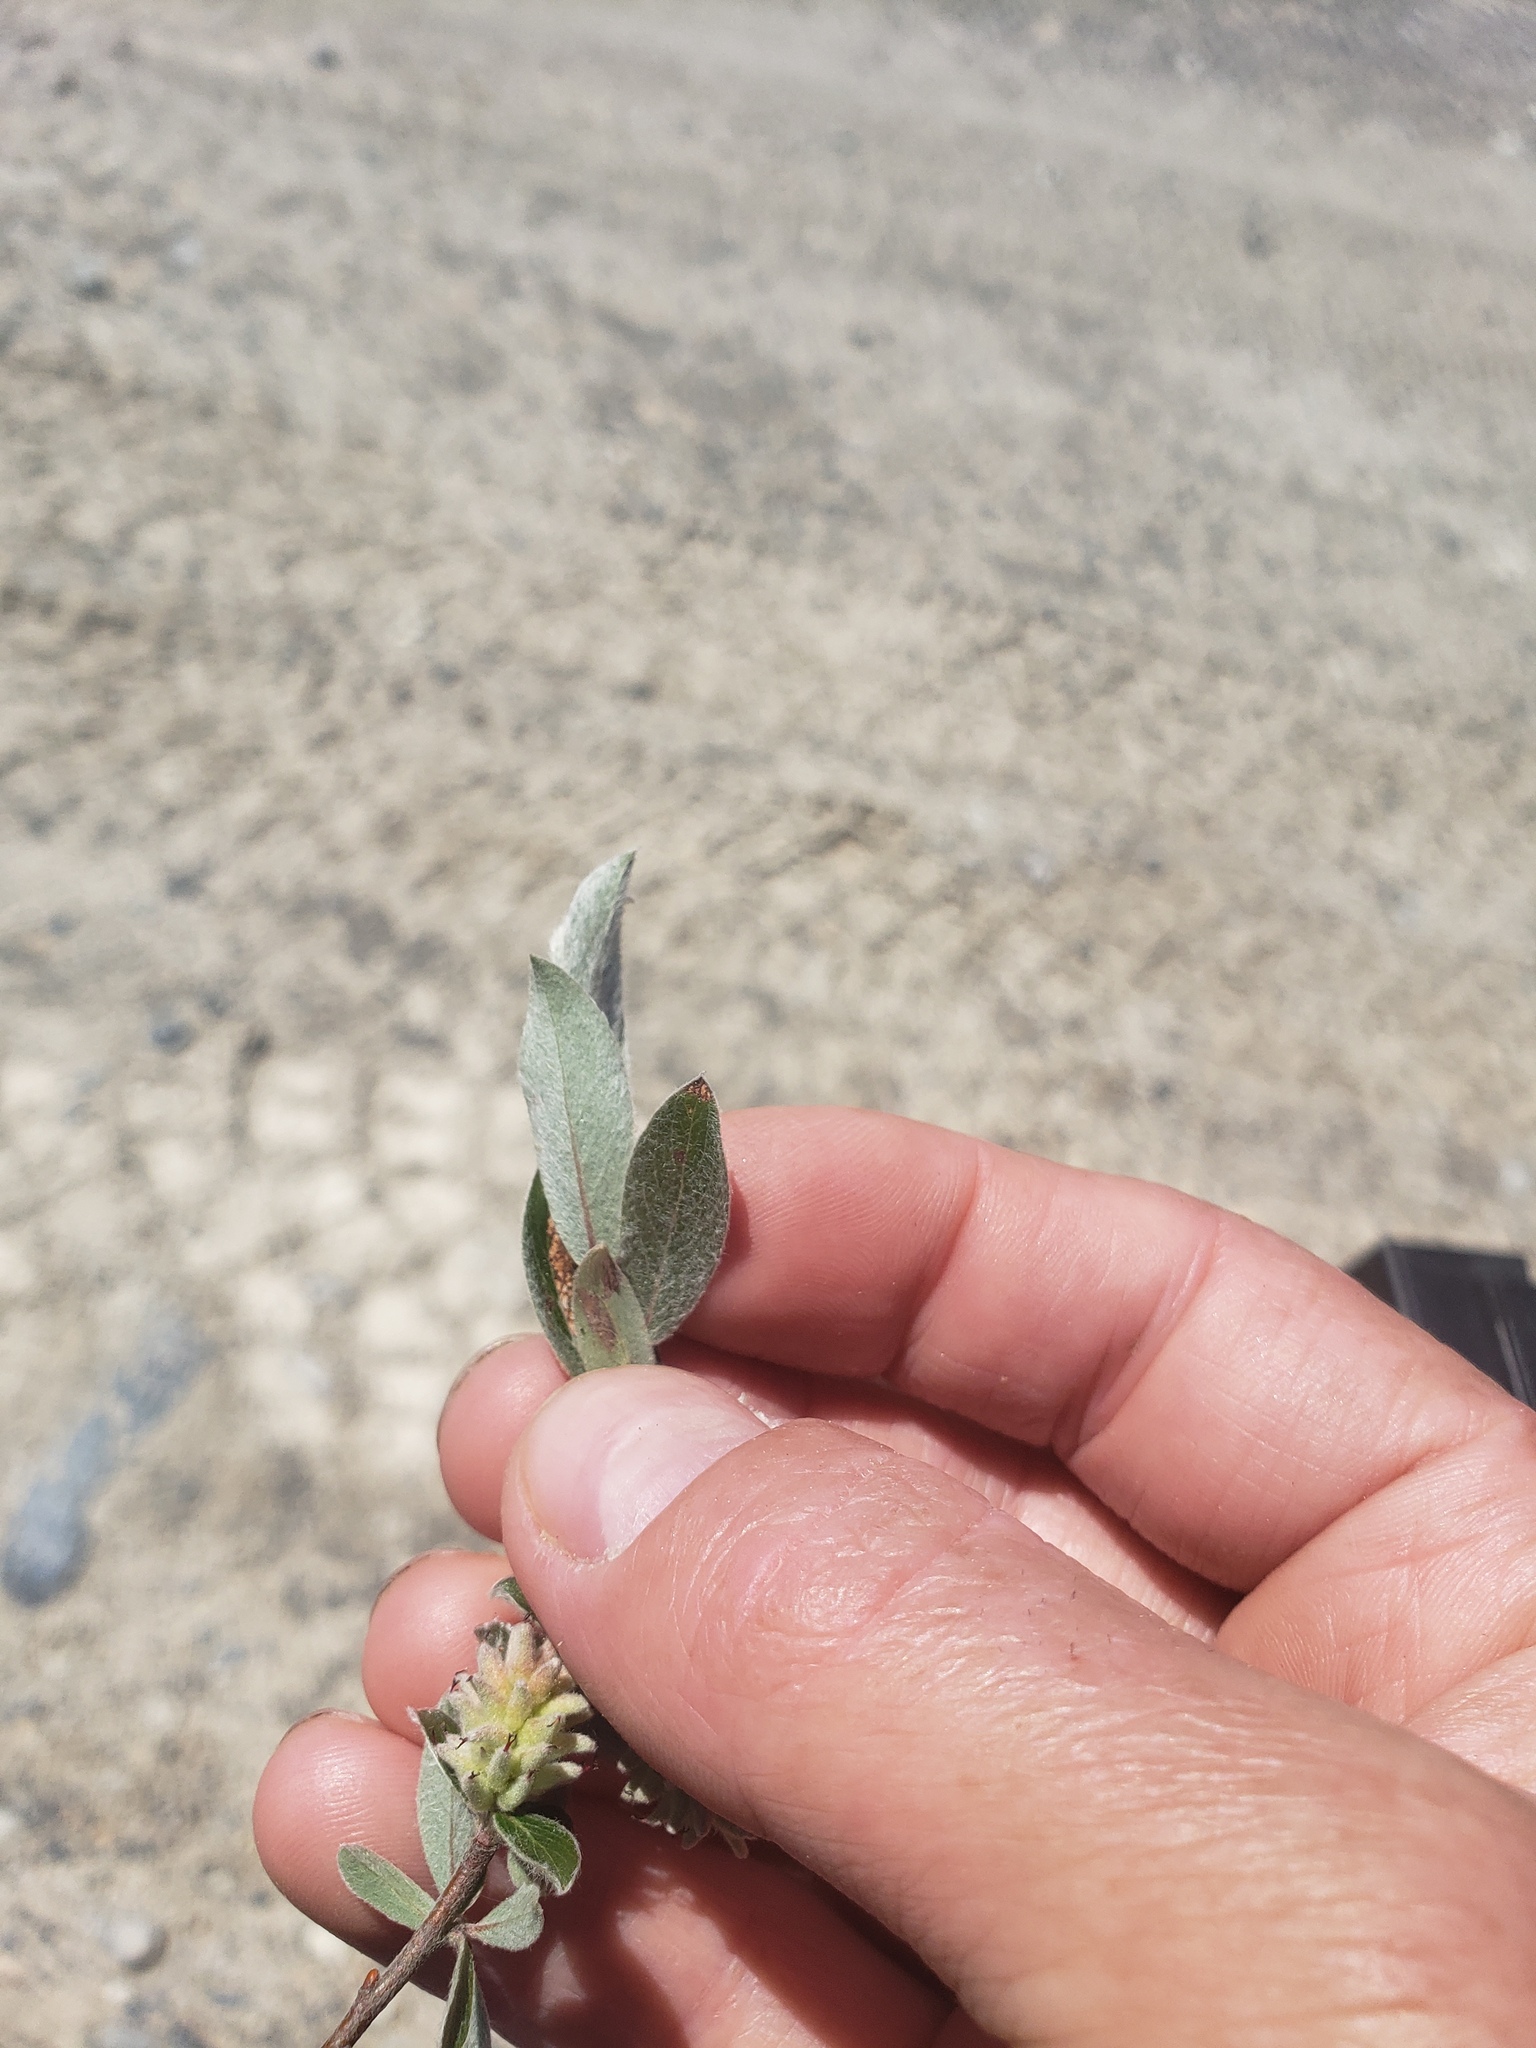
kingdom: Plantae
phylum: Tracheophyta
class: Magnoliopsida
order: Malpighiales
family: Salicaceae
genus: Salix
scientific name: Salix brachycarpa
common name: Barren-ground willow
